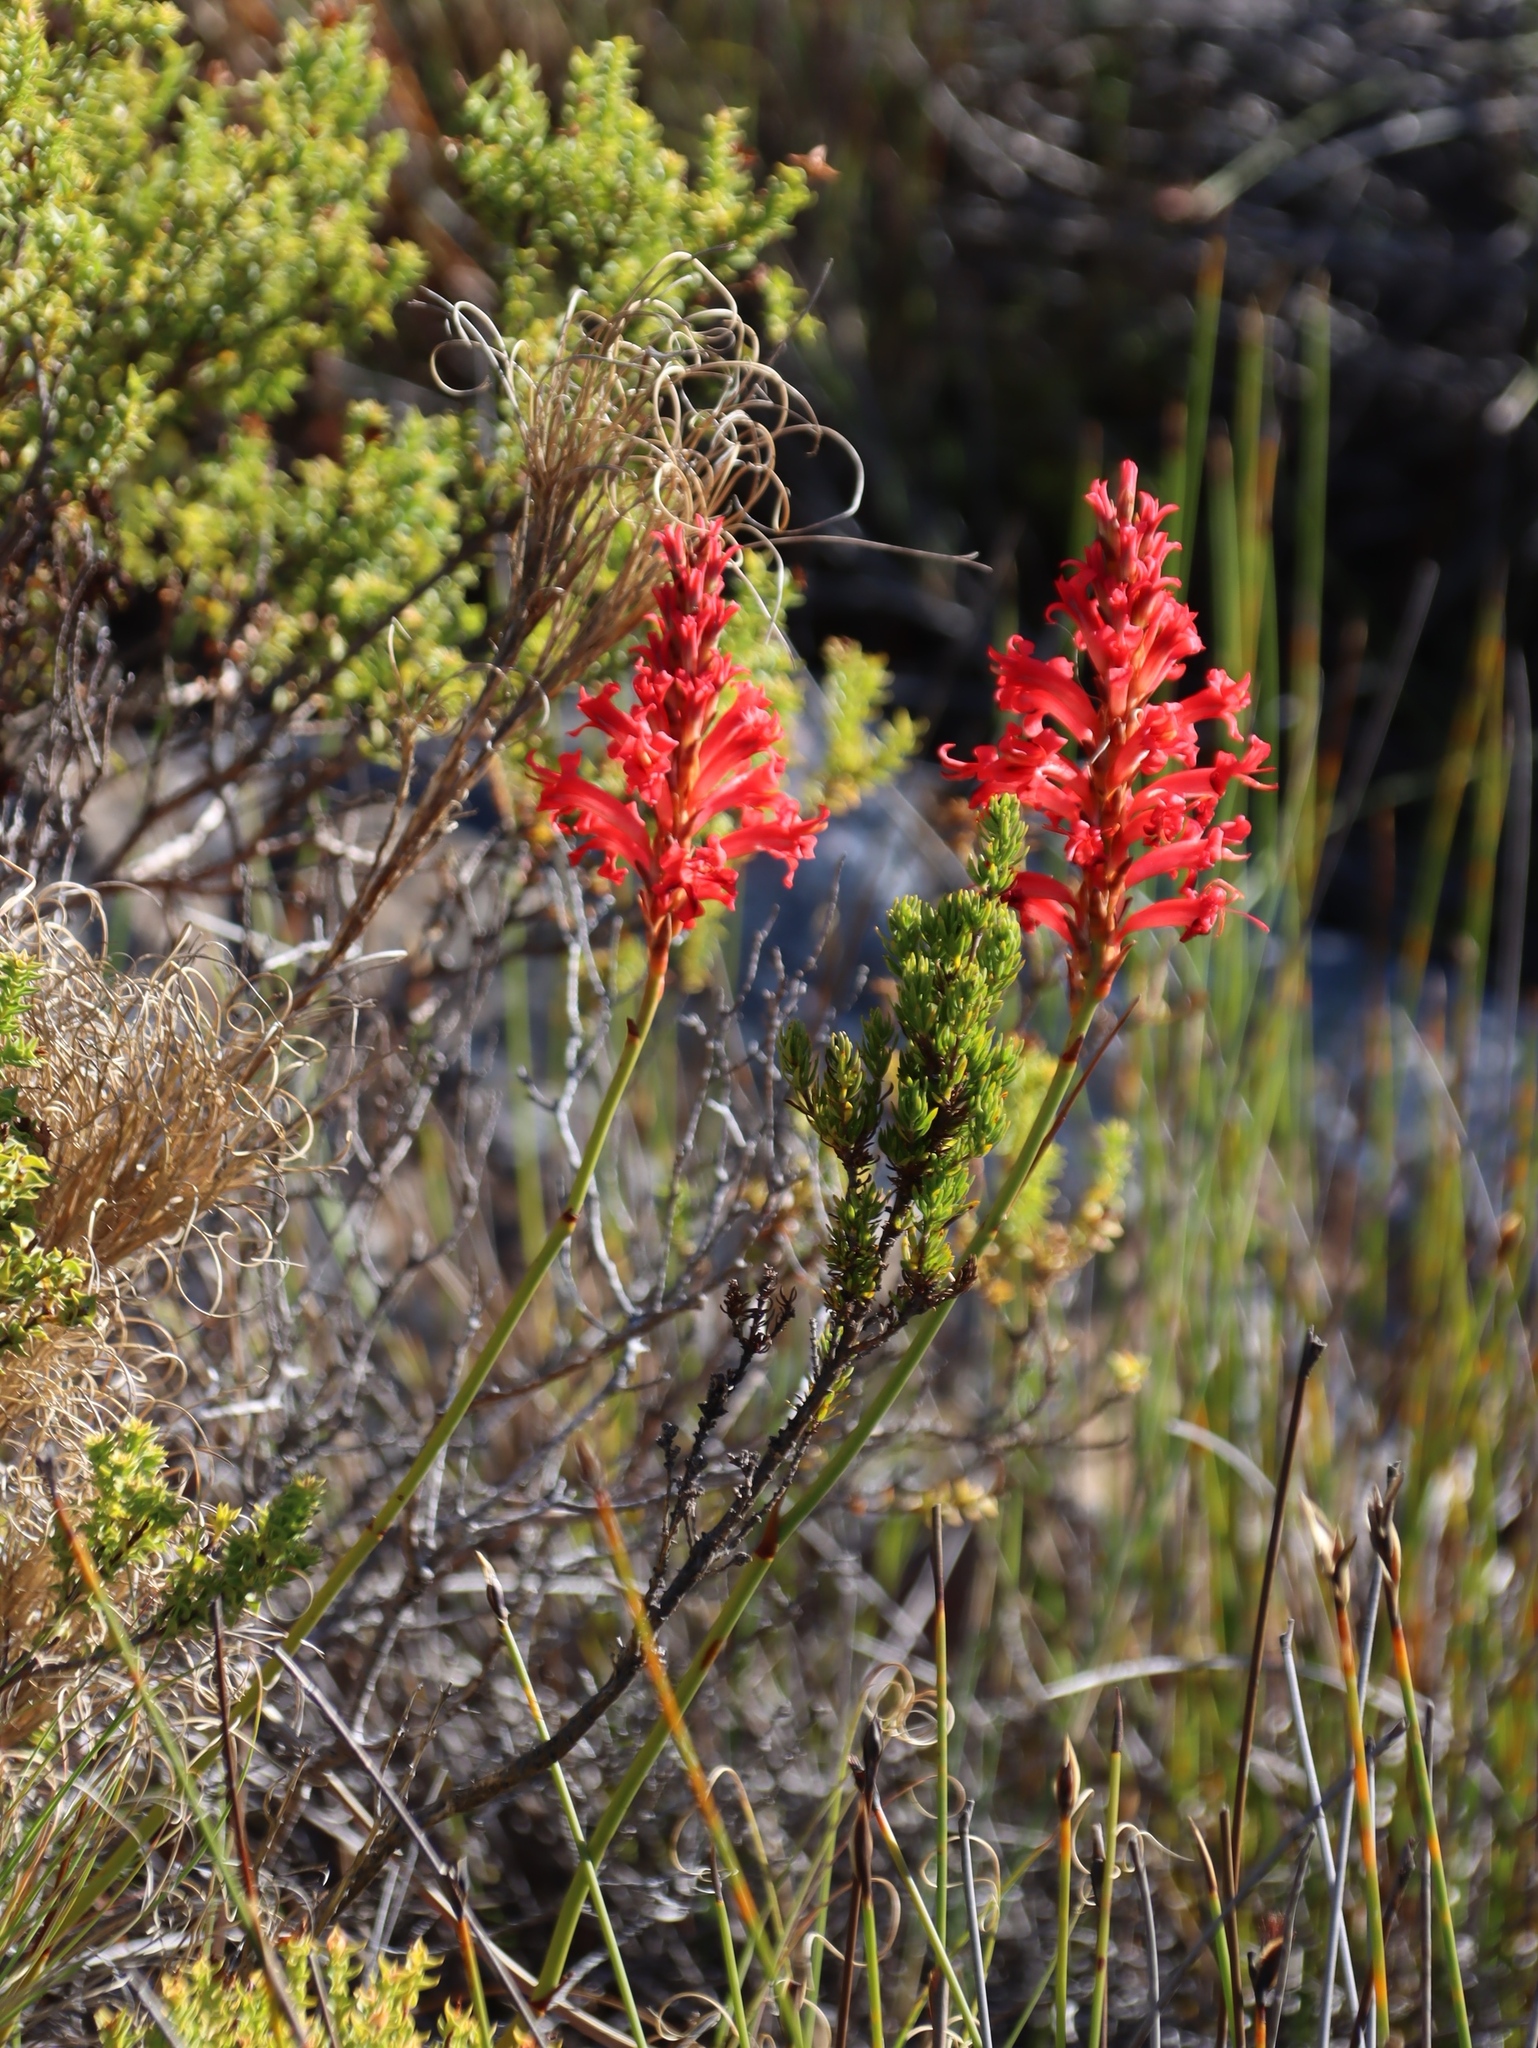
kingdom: Plantae
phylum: Tracheophyta
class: Liliopsida
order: Asparagales
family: Iridaceae
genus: Tritoniopsis
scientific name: Tritoniopsis triticea
